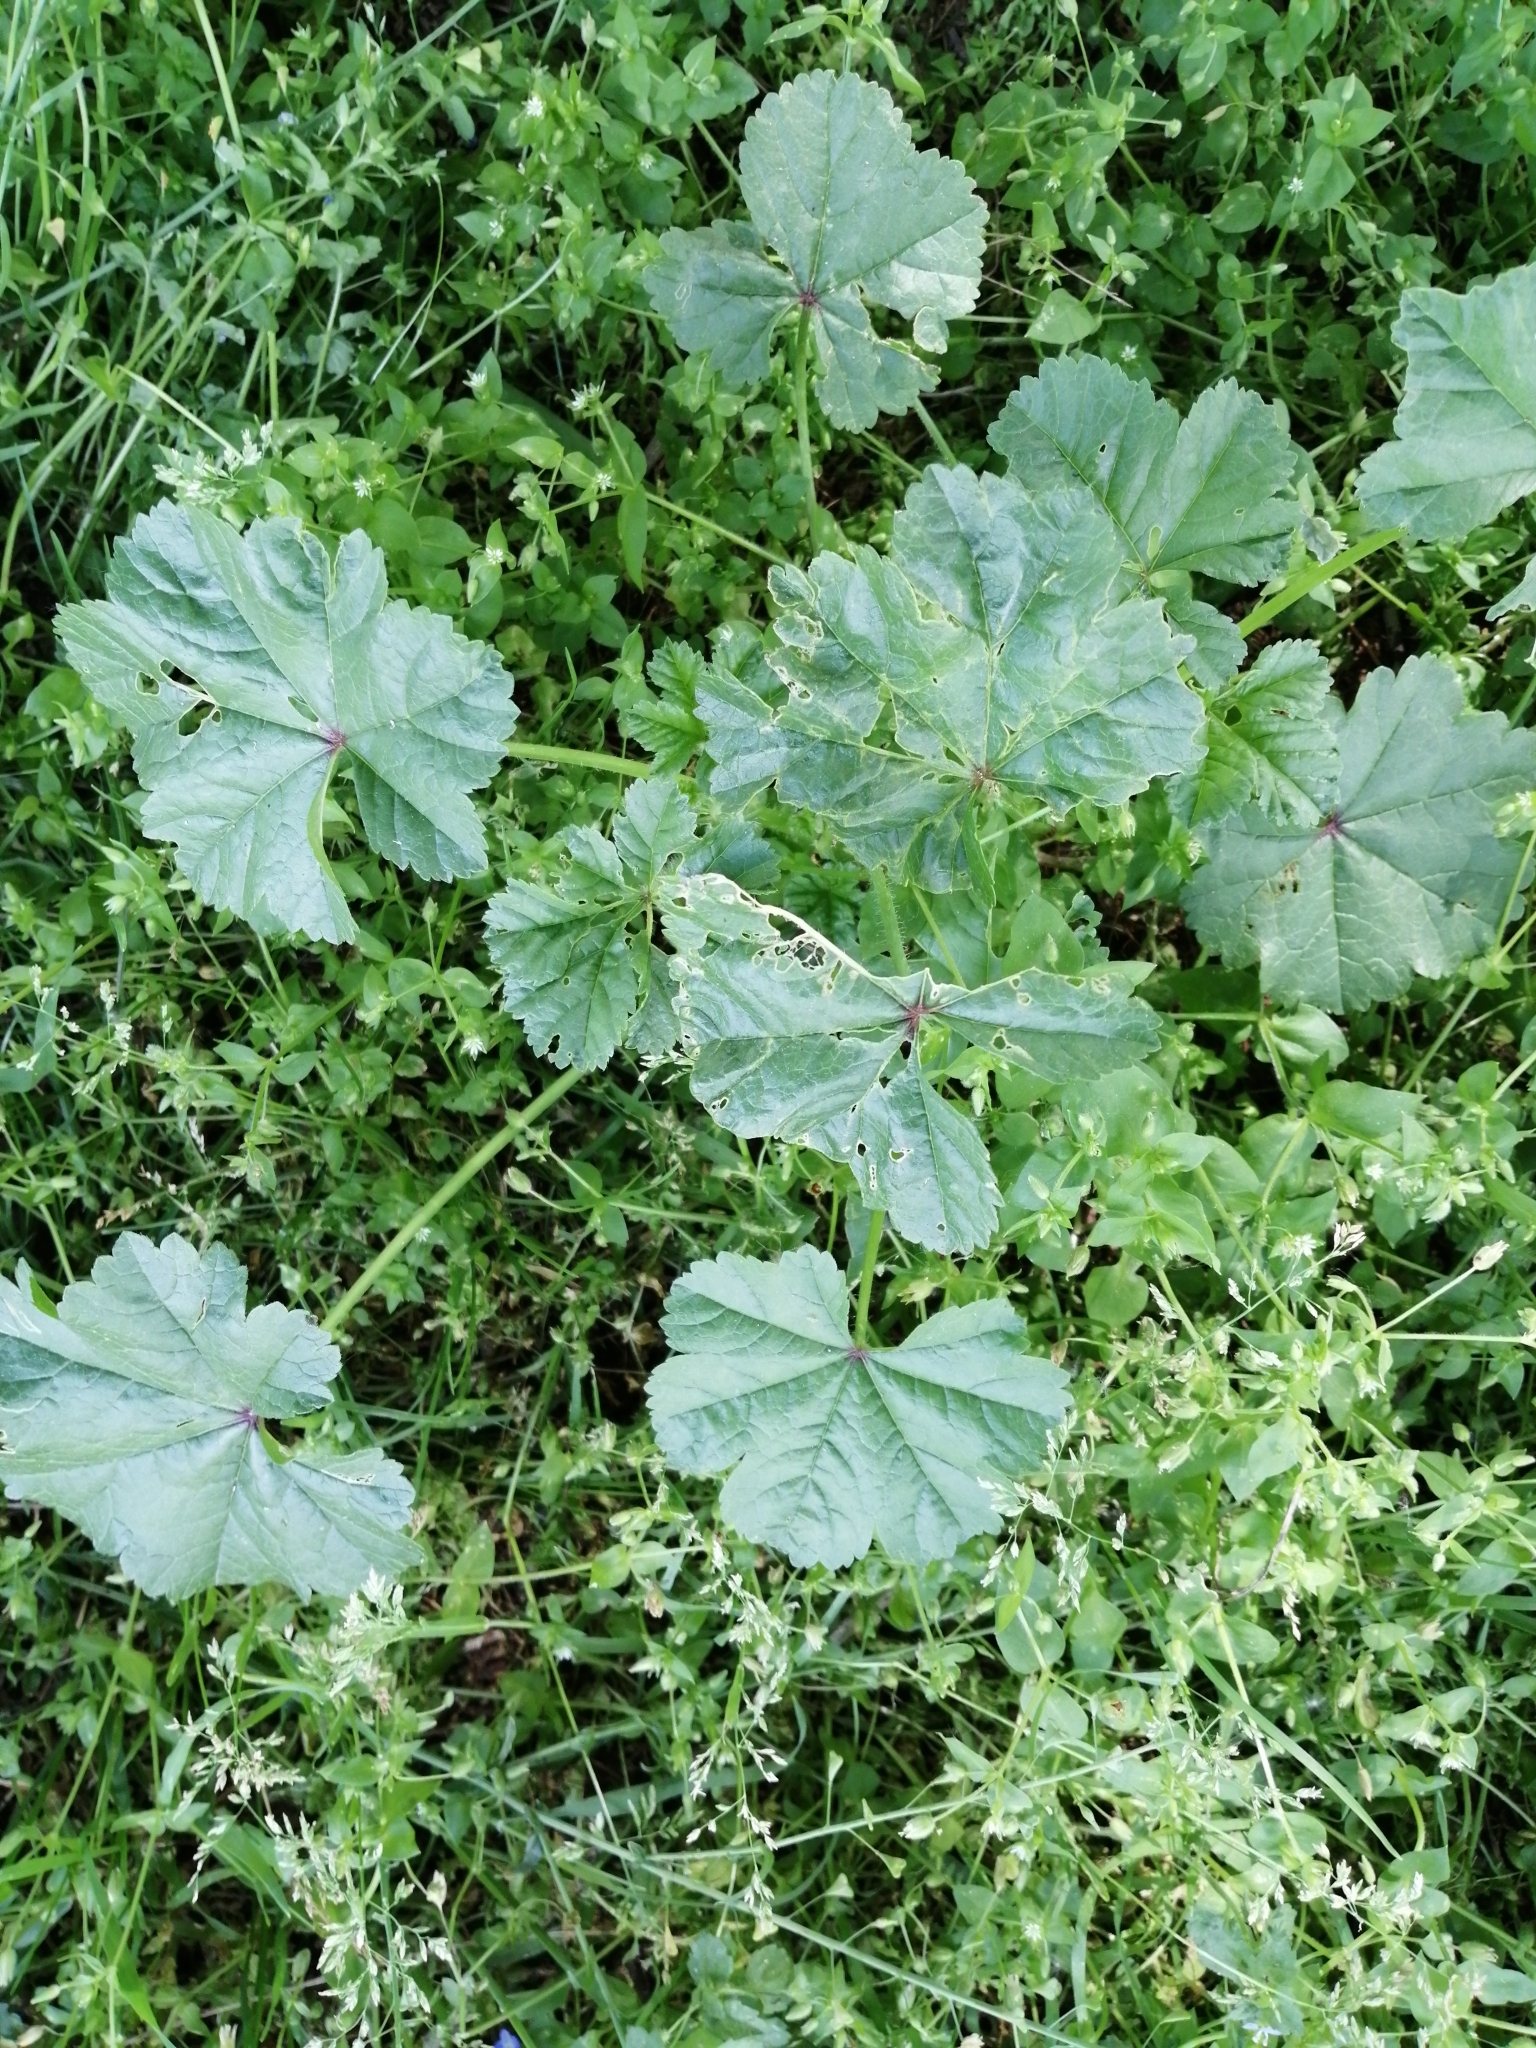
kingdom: Plantae
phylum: Tracheophyta
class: Magnoliopsida
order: Malvales
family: Malvaceae
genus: Malva
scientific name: Malva sylvestris
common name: Common mallow
